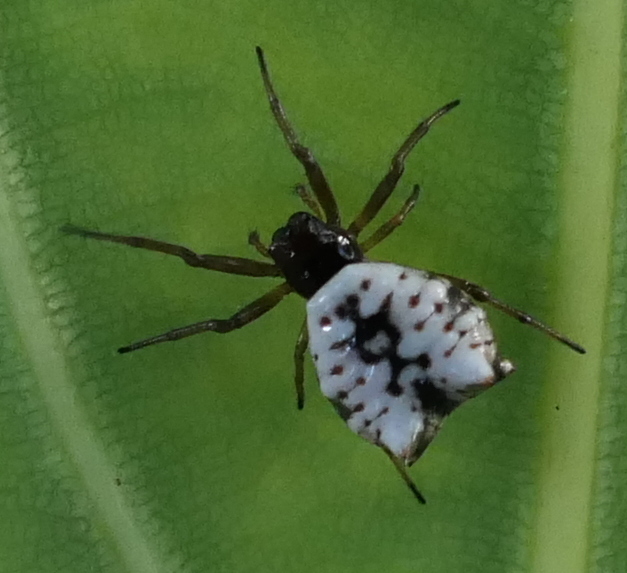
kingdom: Animalia
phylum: Arthropoda
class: Arachnida
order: Araneae
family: Araneidae
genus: Micrathena
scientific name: Micrathena patruelis
